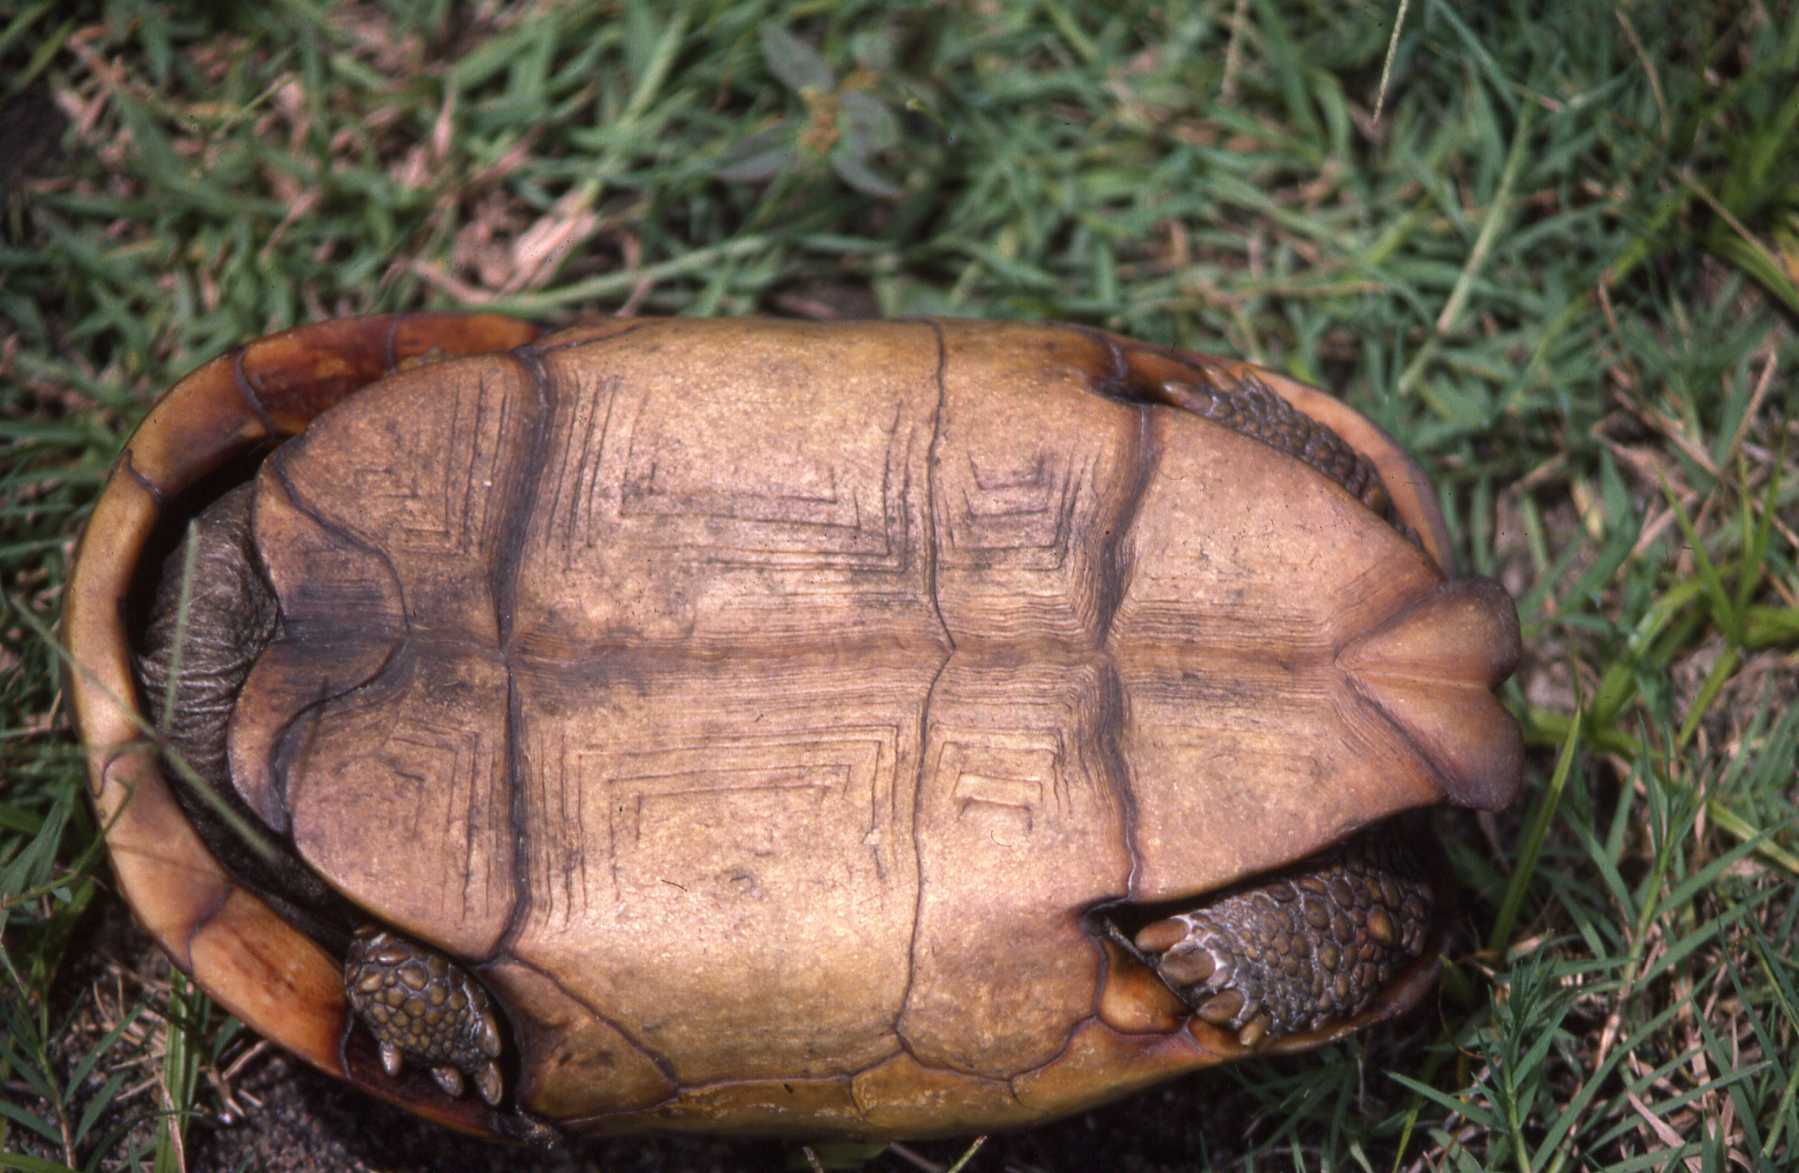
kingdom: Animalia
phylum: Chordata
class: Testudines
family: Testudinidae
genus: Kinixys
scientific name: Kinixys spekii
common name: Speke's hingeback tortoise
